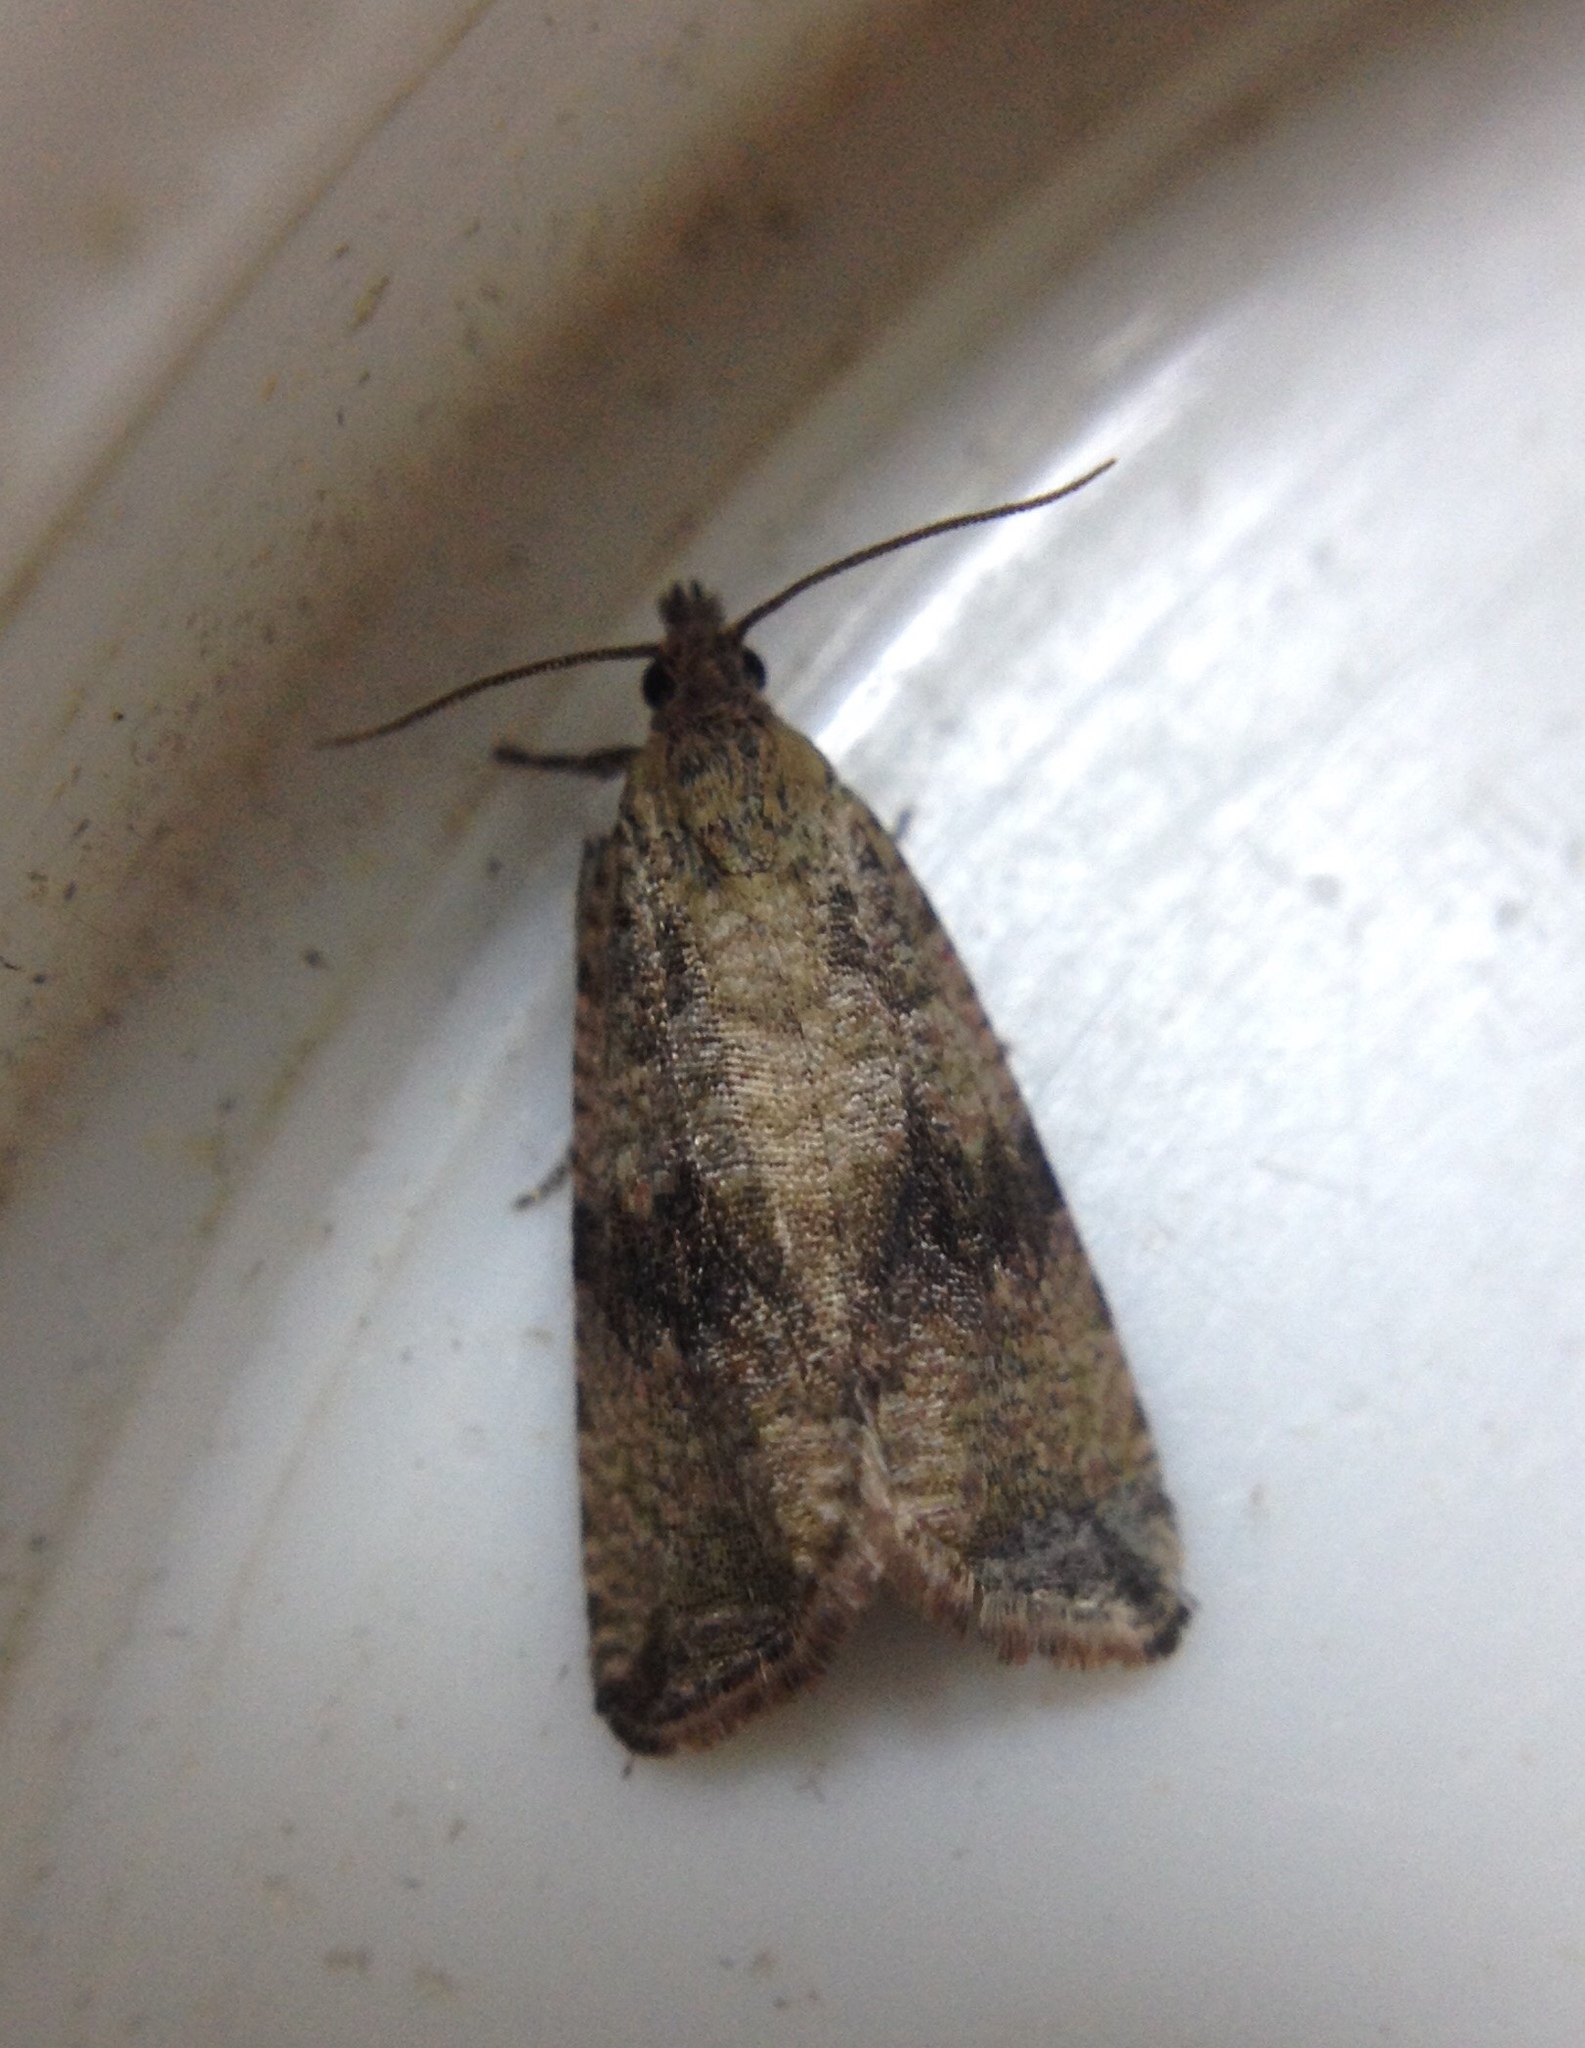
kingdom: Animalia
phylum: Arthropoda
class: Insecta
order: Lepidoptera
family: Tortricidae
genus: Celypha
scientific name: Celypha striana
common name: Barred marble
